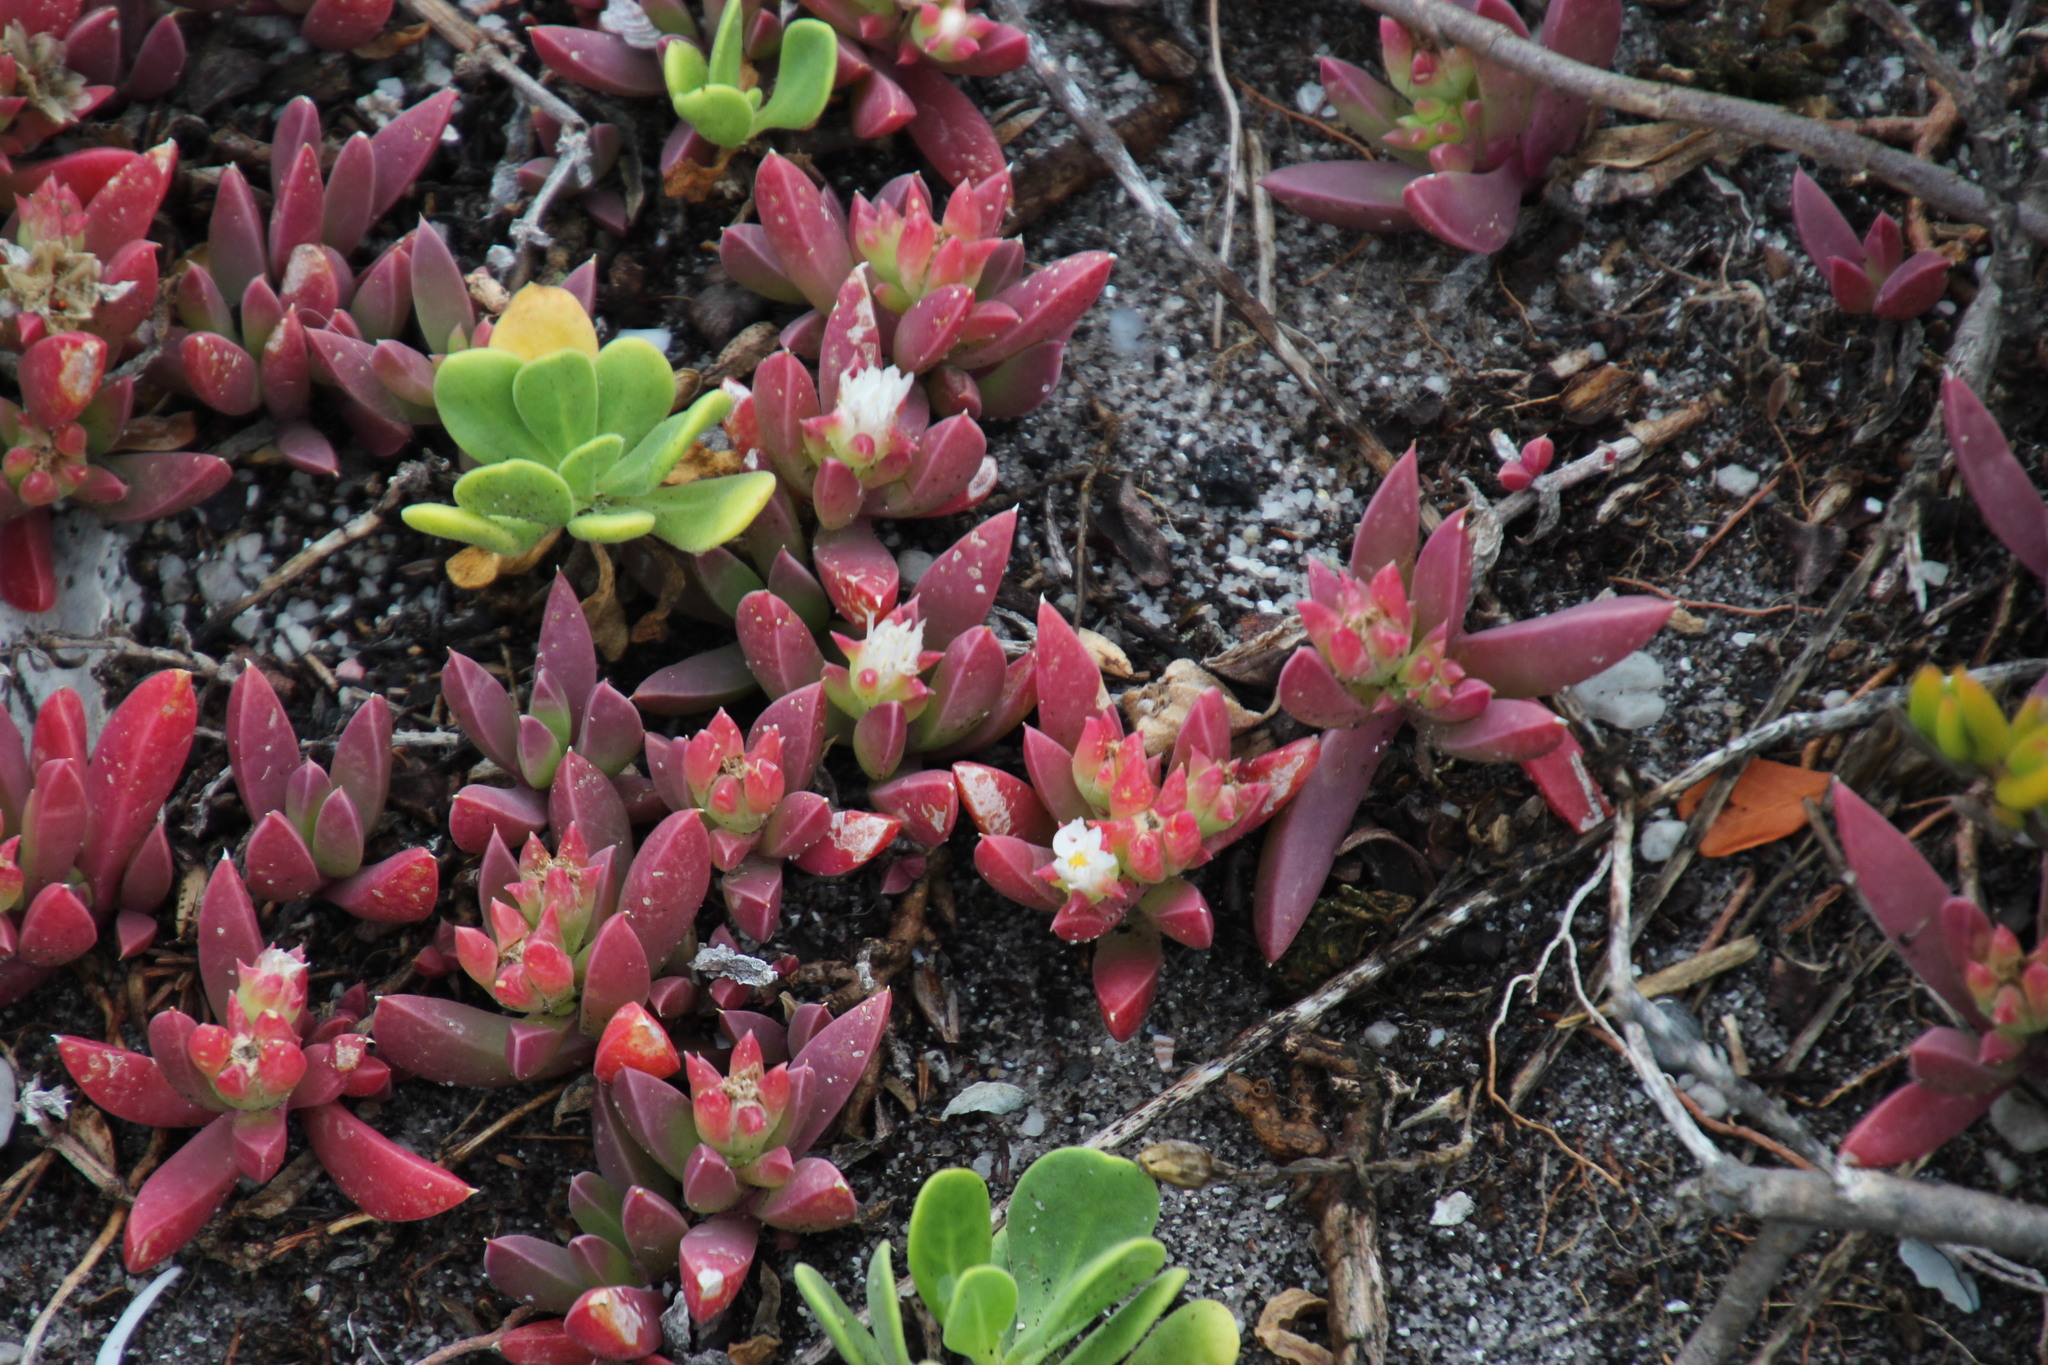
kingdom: Plantae
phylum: Tracheophyta
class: Magnoliopsida
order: Caryophyllales
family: Aizoaceae
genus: Delosperma
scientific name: Delosperma patersoniae
